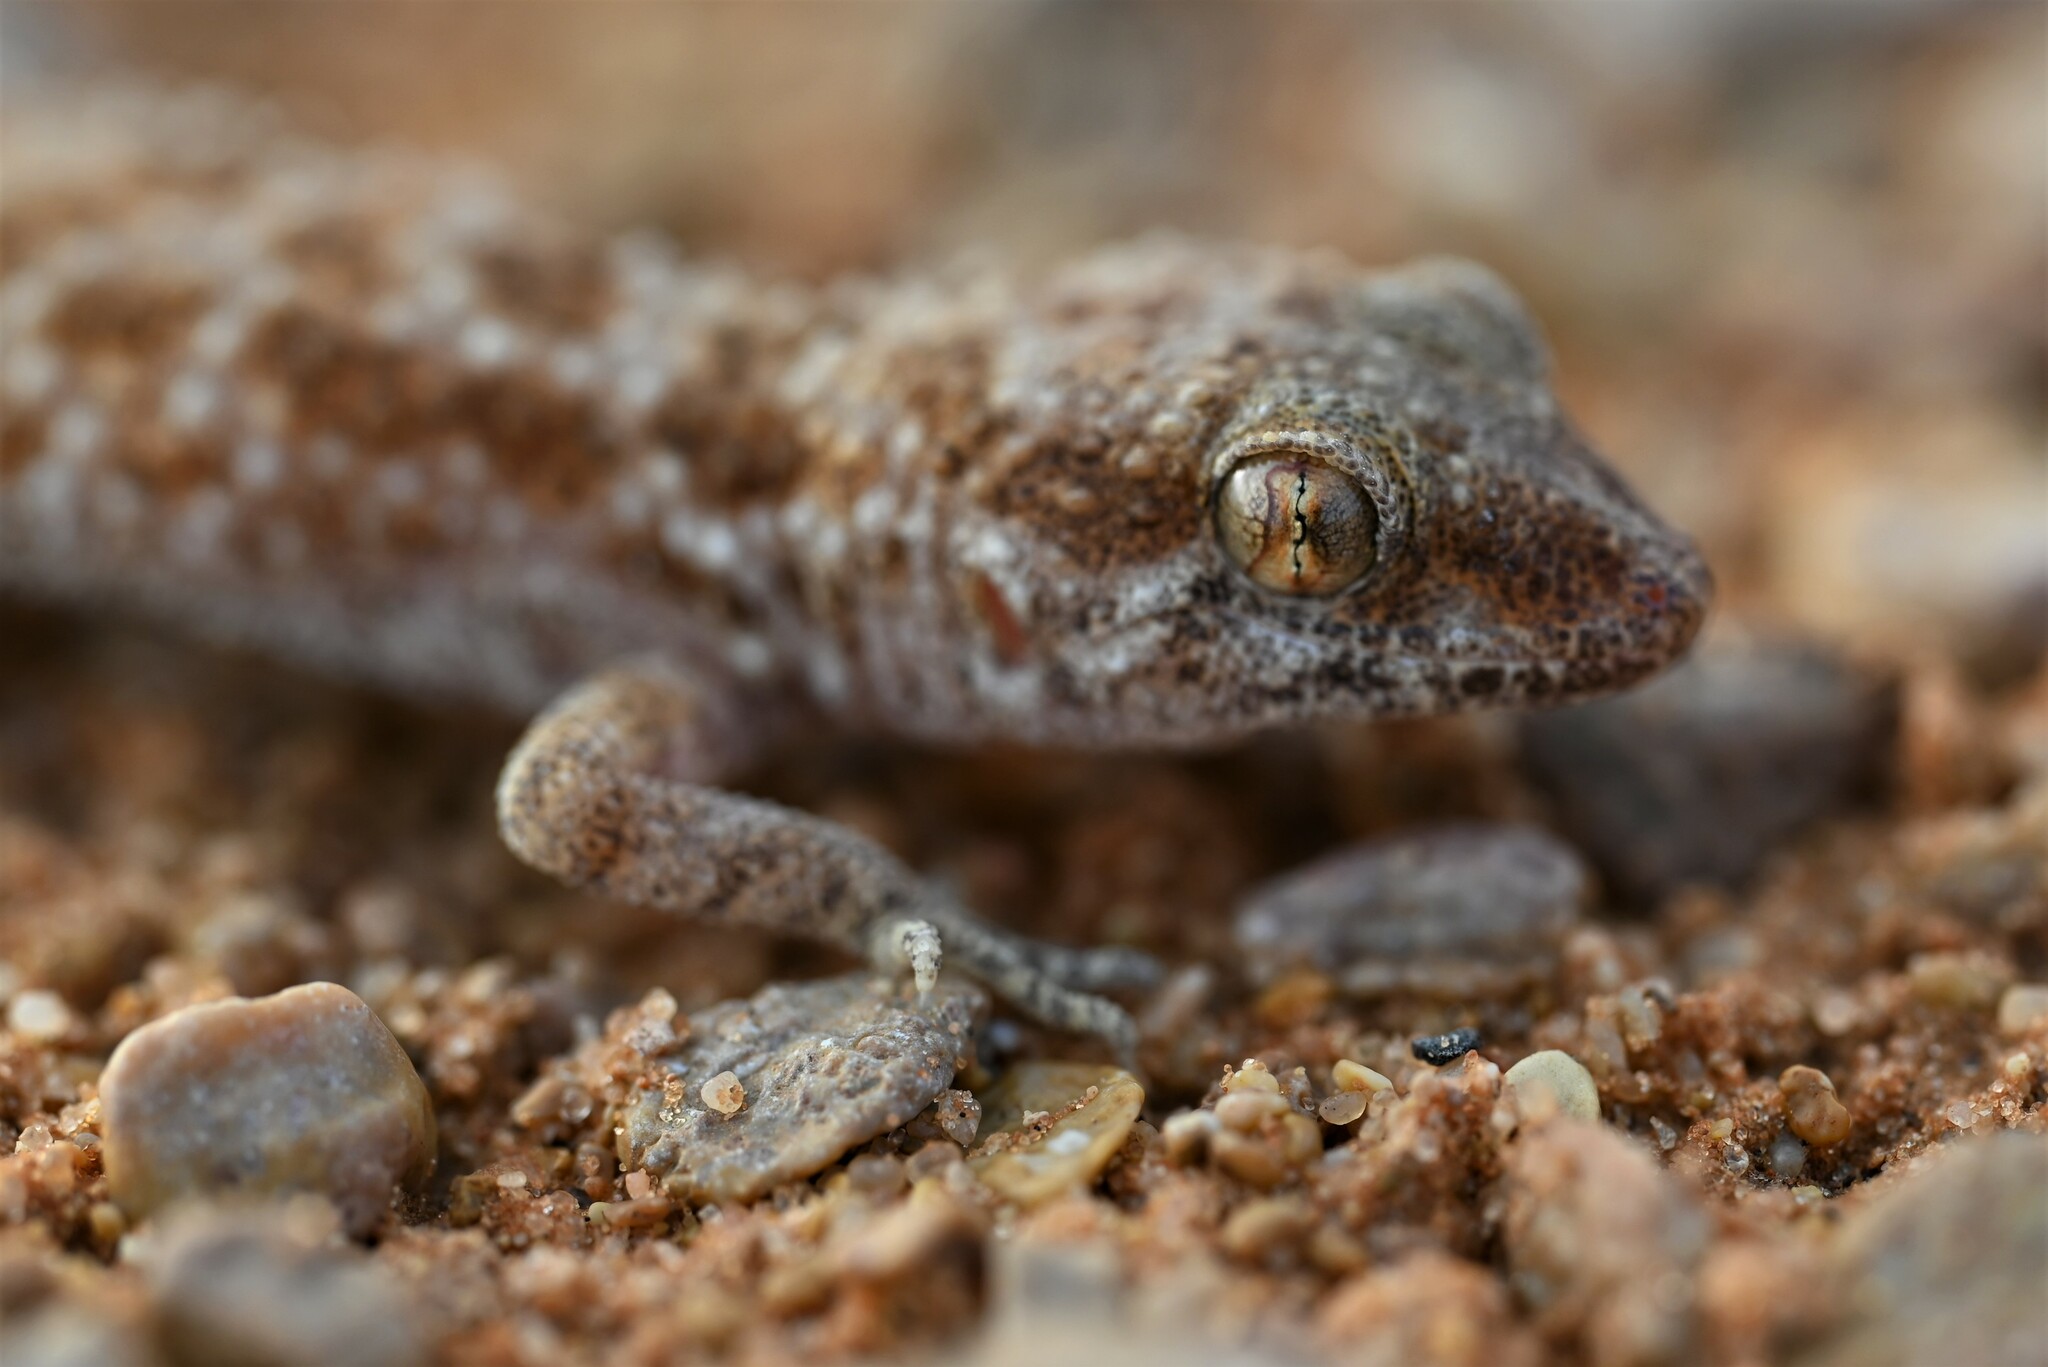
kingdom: Animalia
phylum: Chordata
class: Squamata
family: Gekkonidae
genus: Bunopus
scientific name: Bunopus tuberculatus
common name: Southern tuberculated gecko
